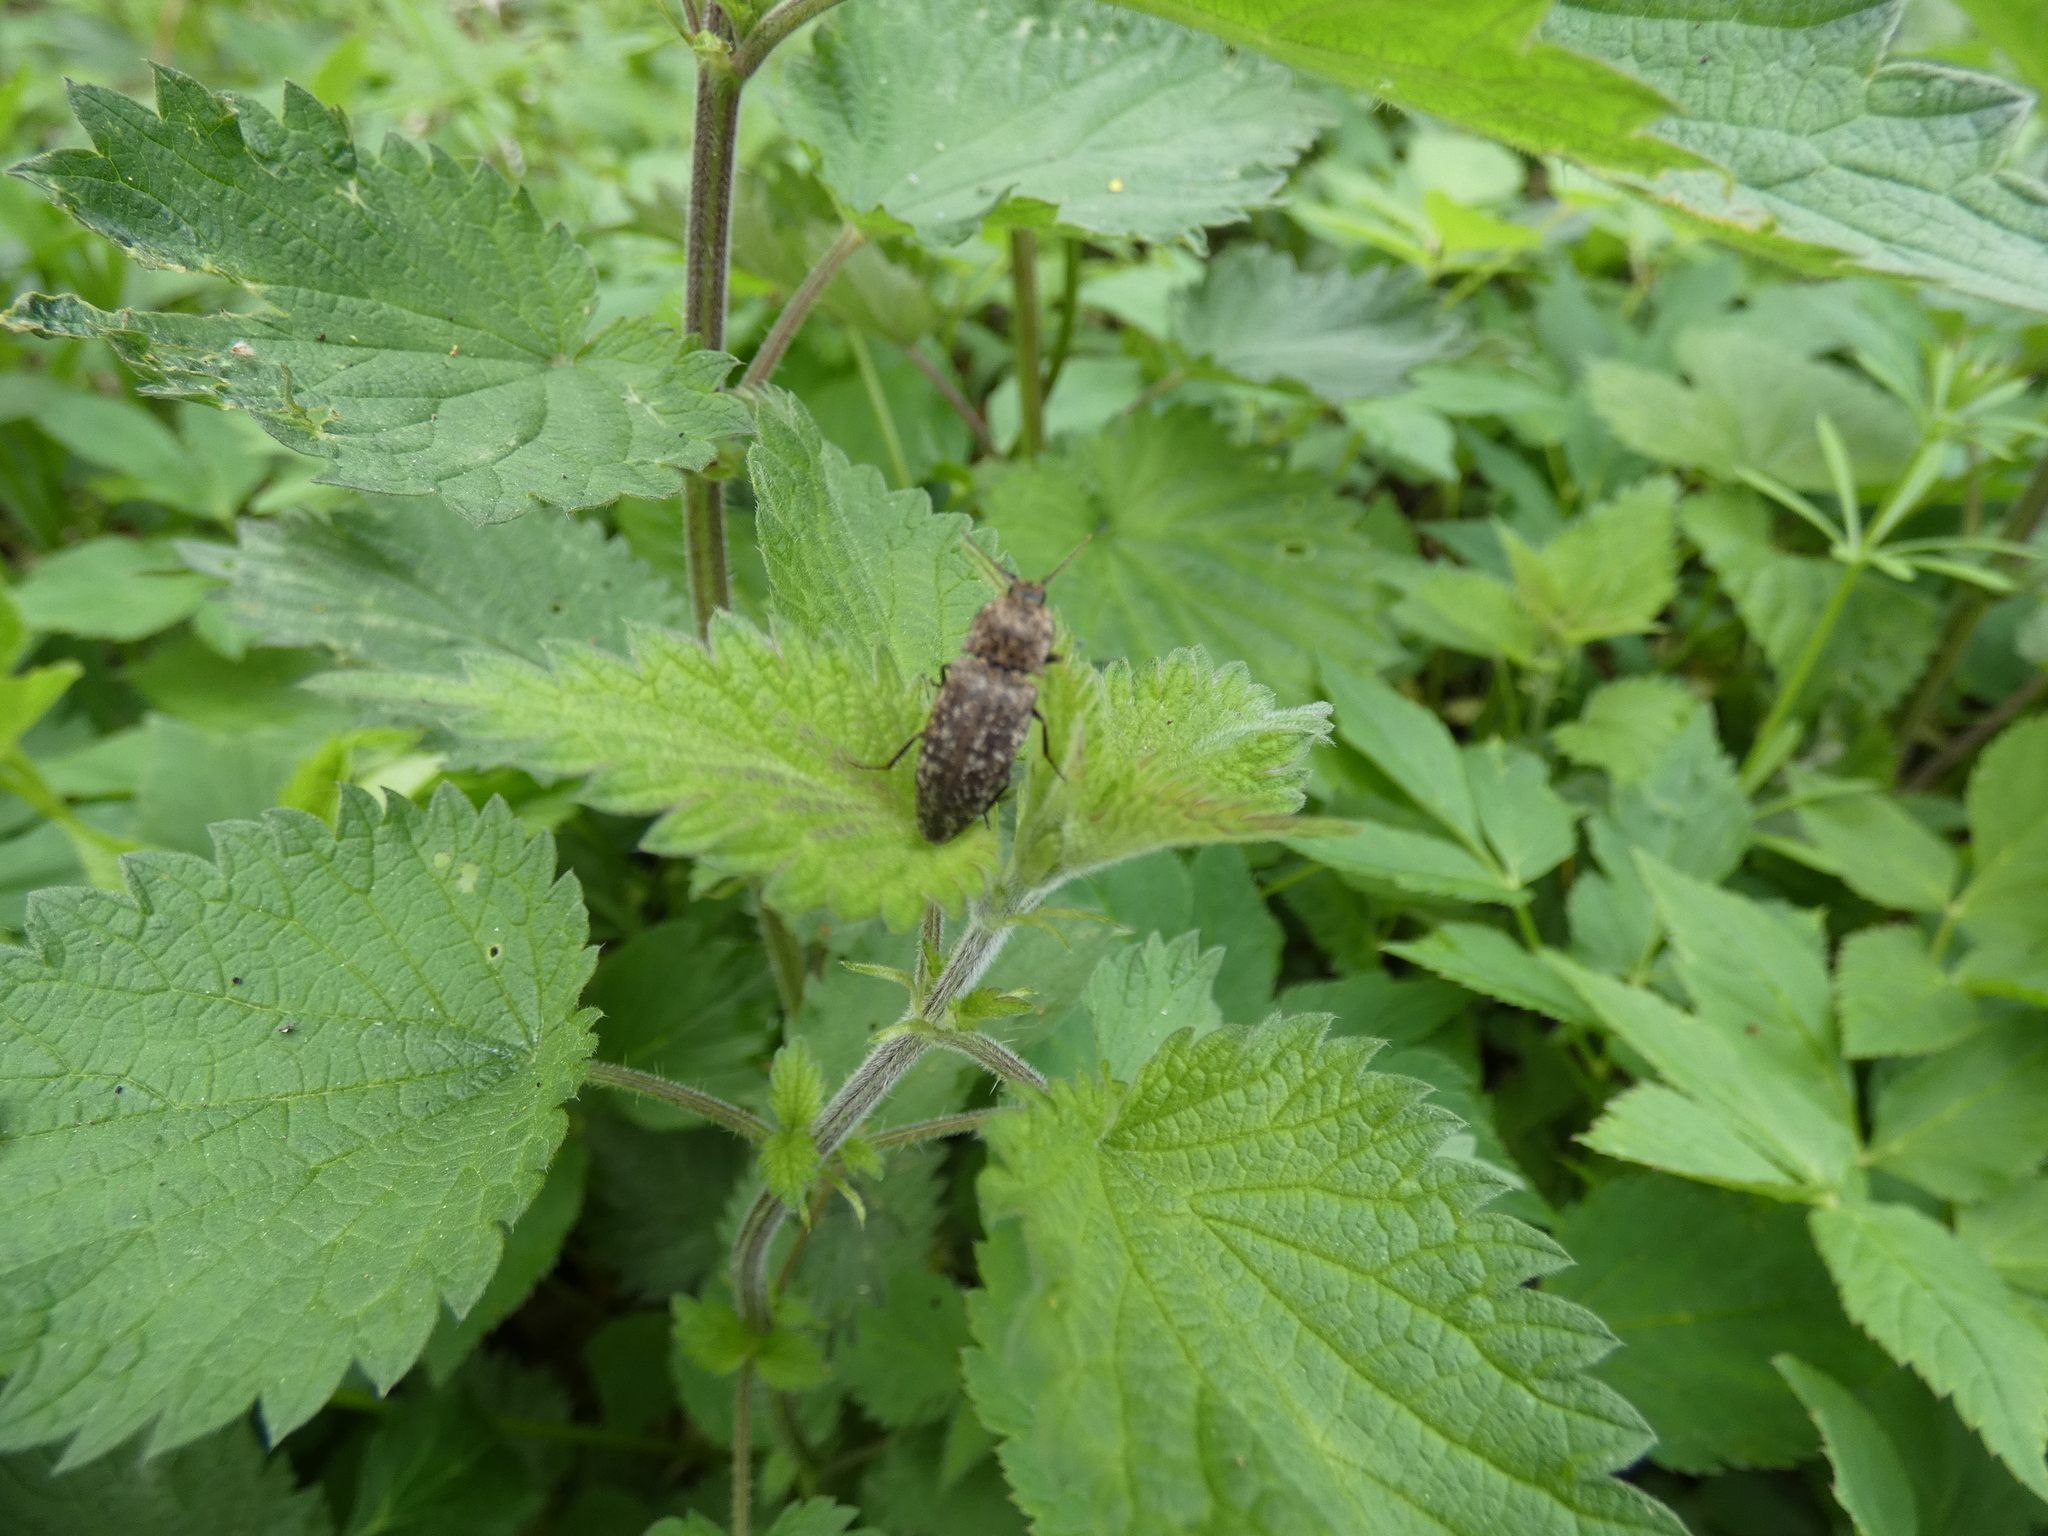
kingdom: Animalia
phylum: Arthropoda
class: Insecta
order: Coleoptera
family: Elateridae
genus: Agrypnus
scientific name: Agrypnus murinus
